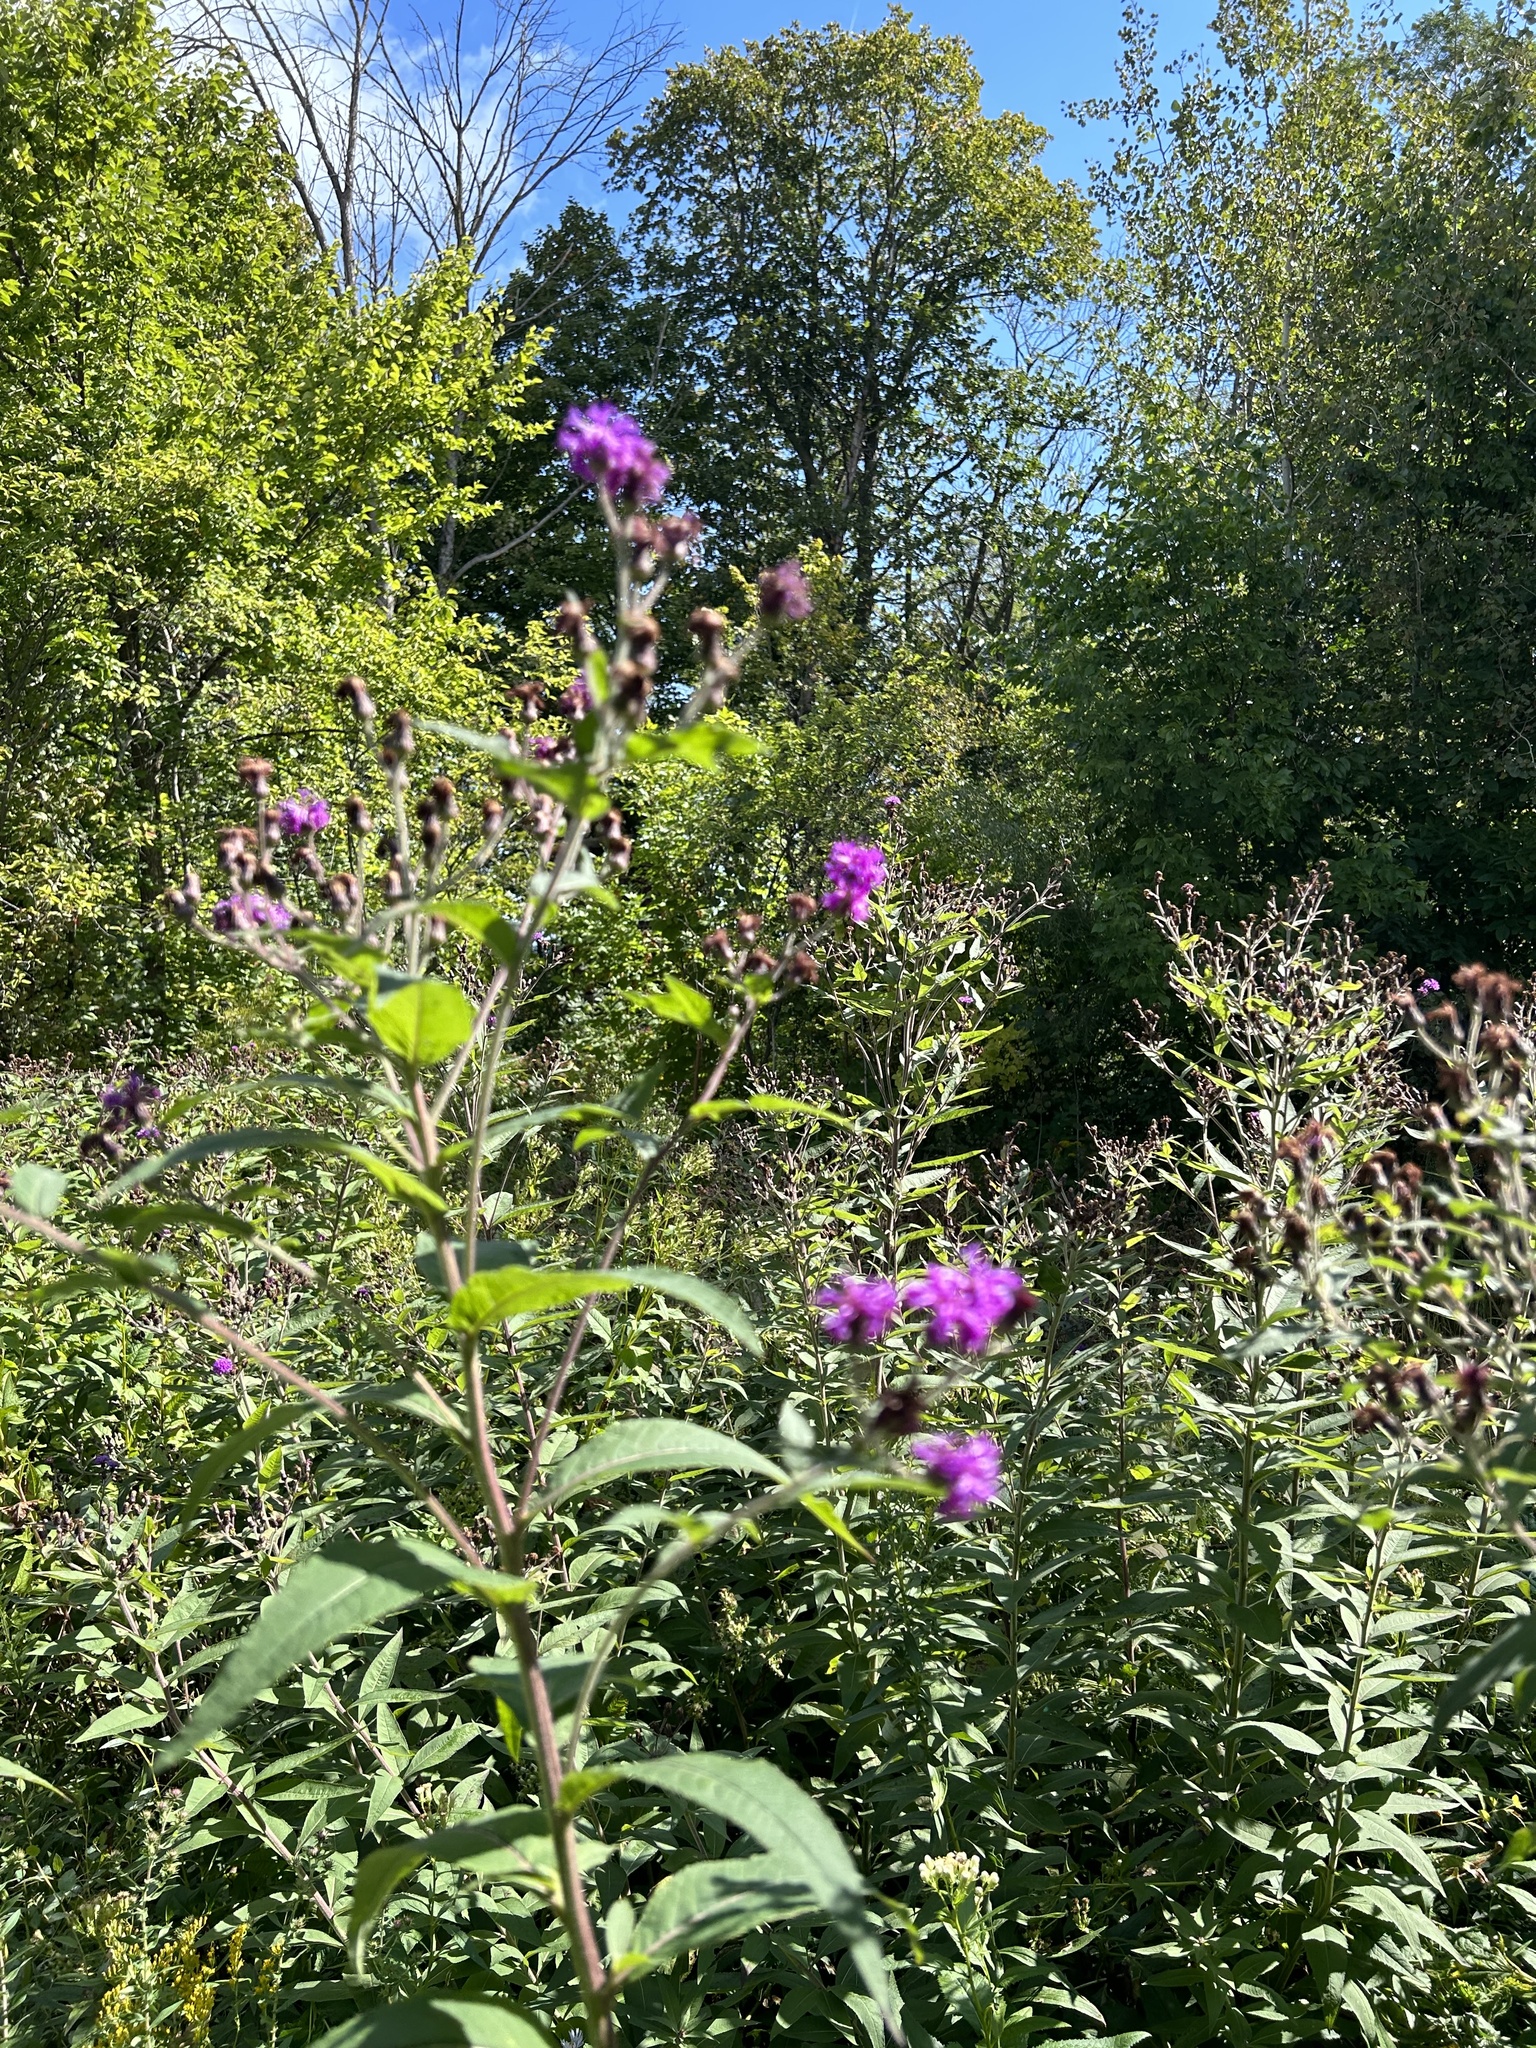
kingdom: Plantae
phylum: Tracheophyta
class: Magnoliopsida
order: Asterales
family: Asteraceae
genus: Vernonia
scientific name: Vernonia fasciculata
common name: Fascicled ironweed
